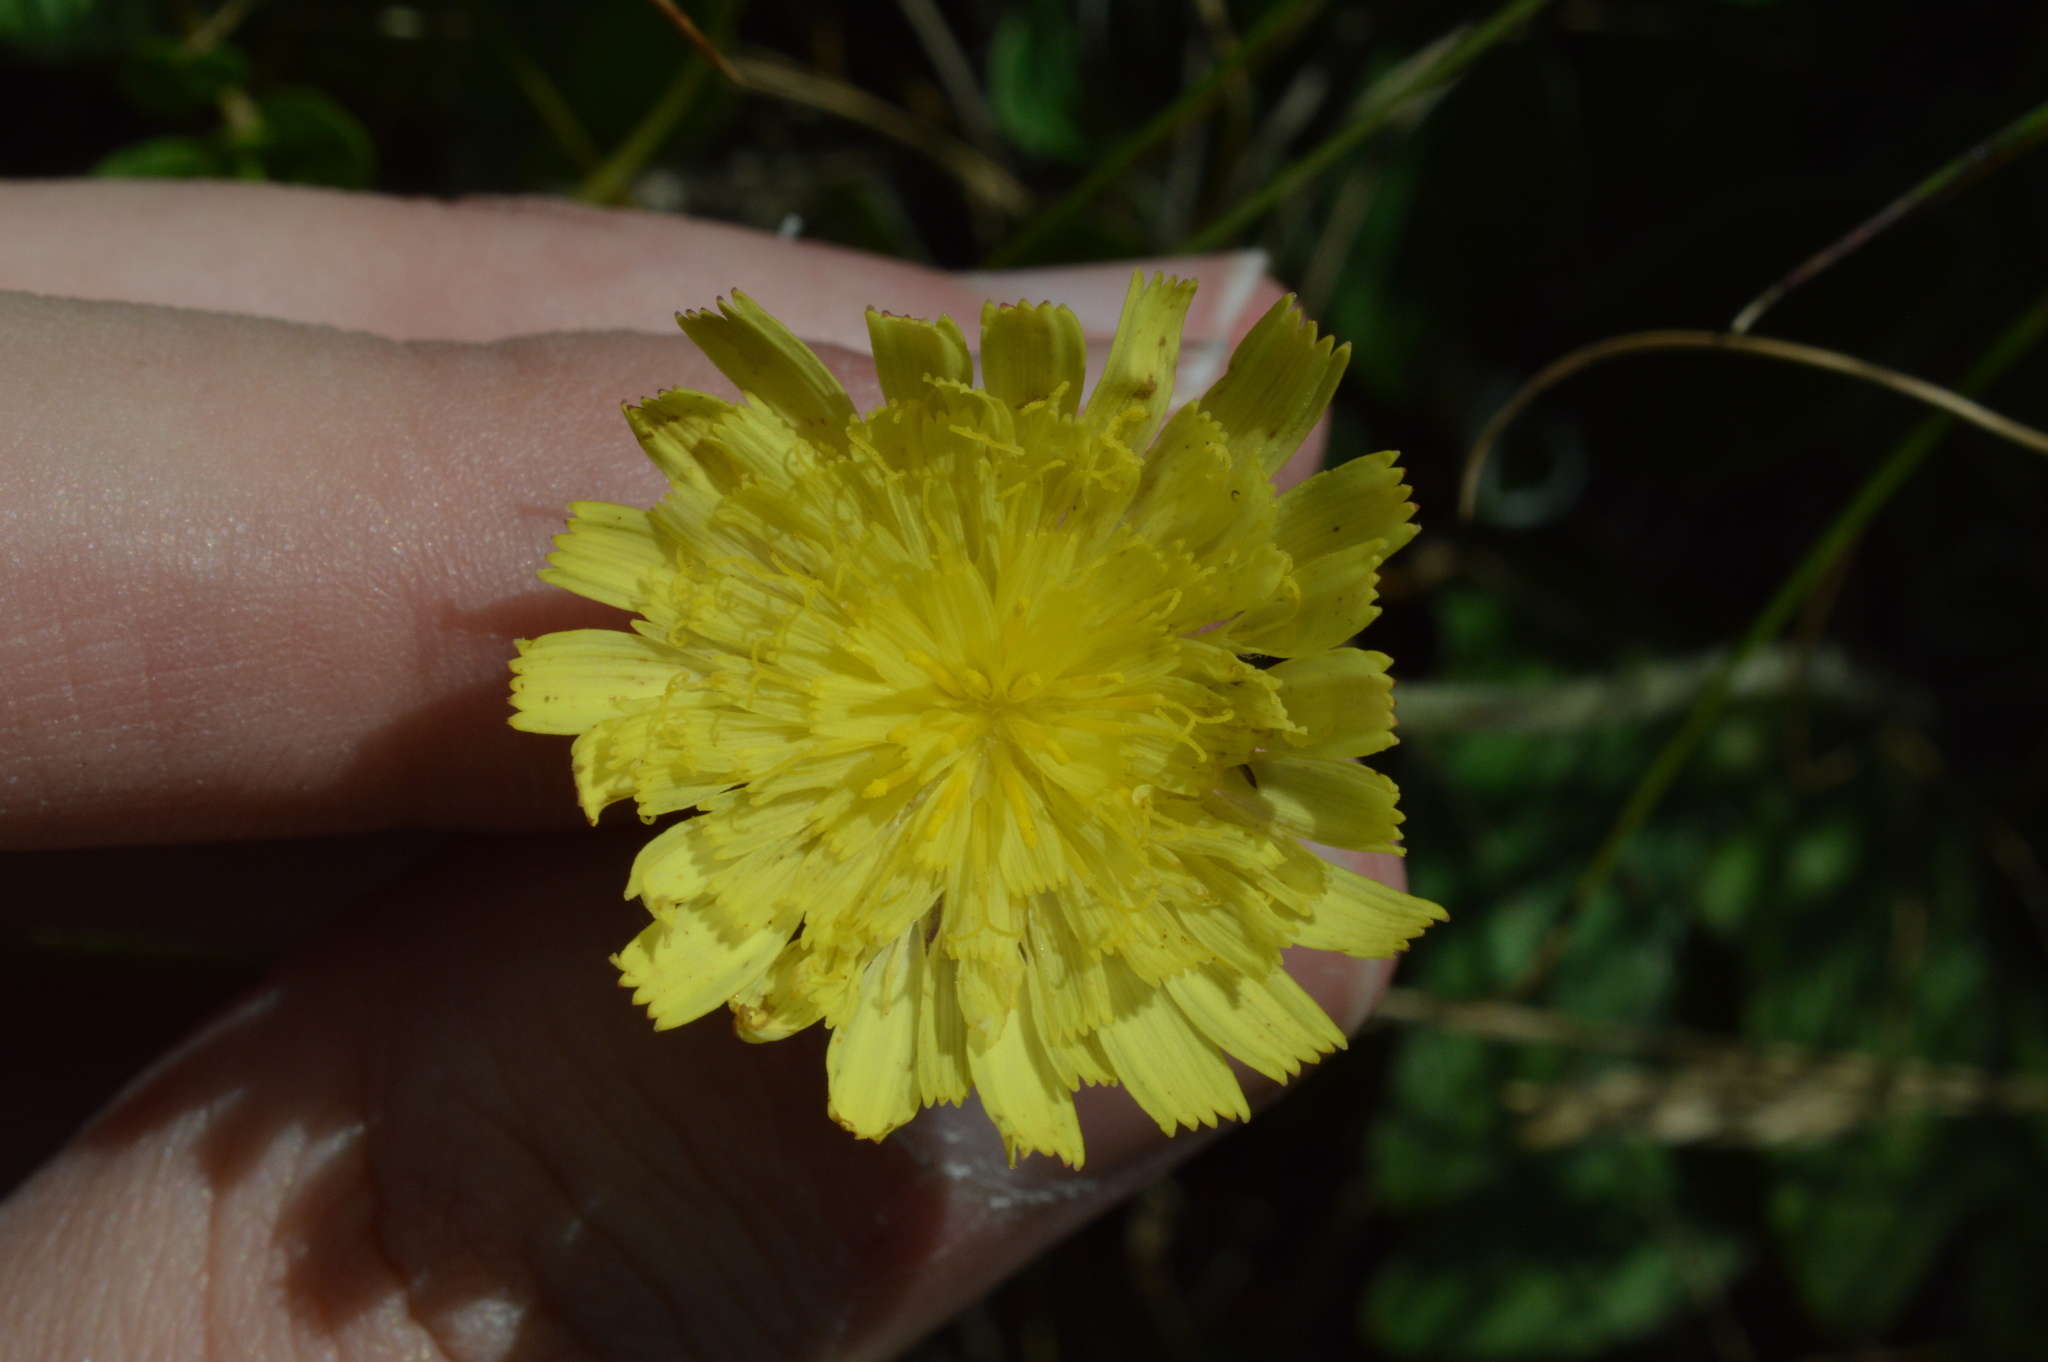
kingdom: Plantae
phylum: Tracheophyta
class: Magnoliopsida
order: Asterales
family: Asteraceae
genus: Pilosella
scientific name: Pilosella officinarum
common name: Mouse-ear hawkweed
